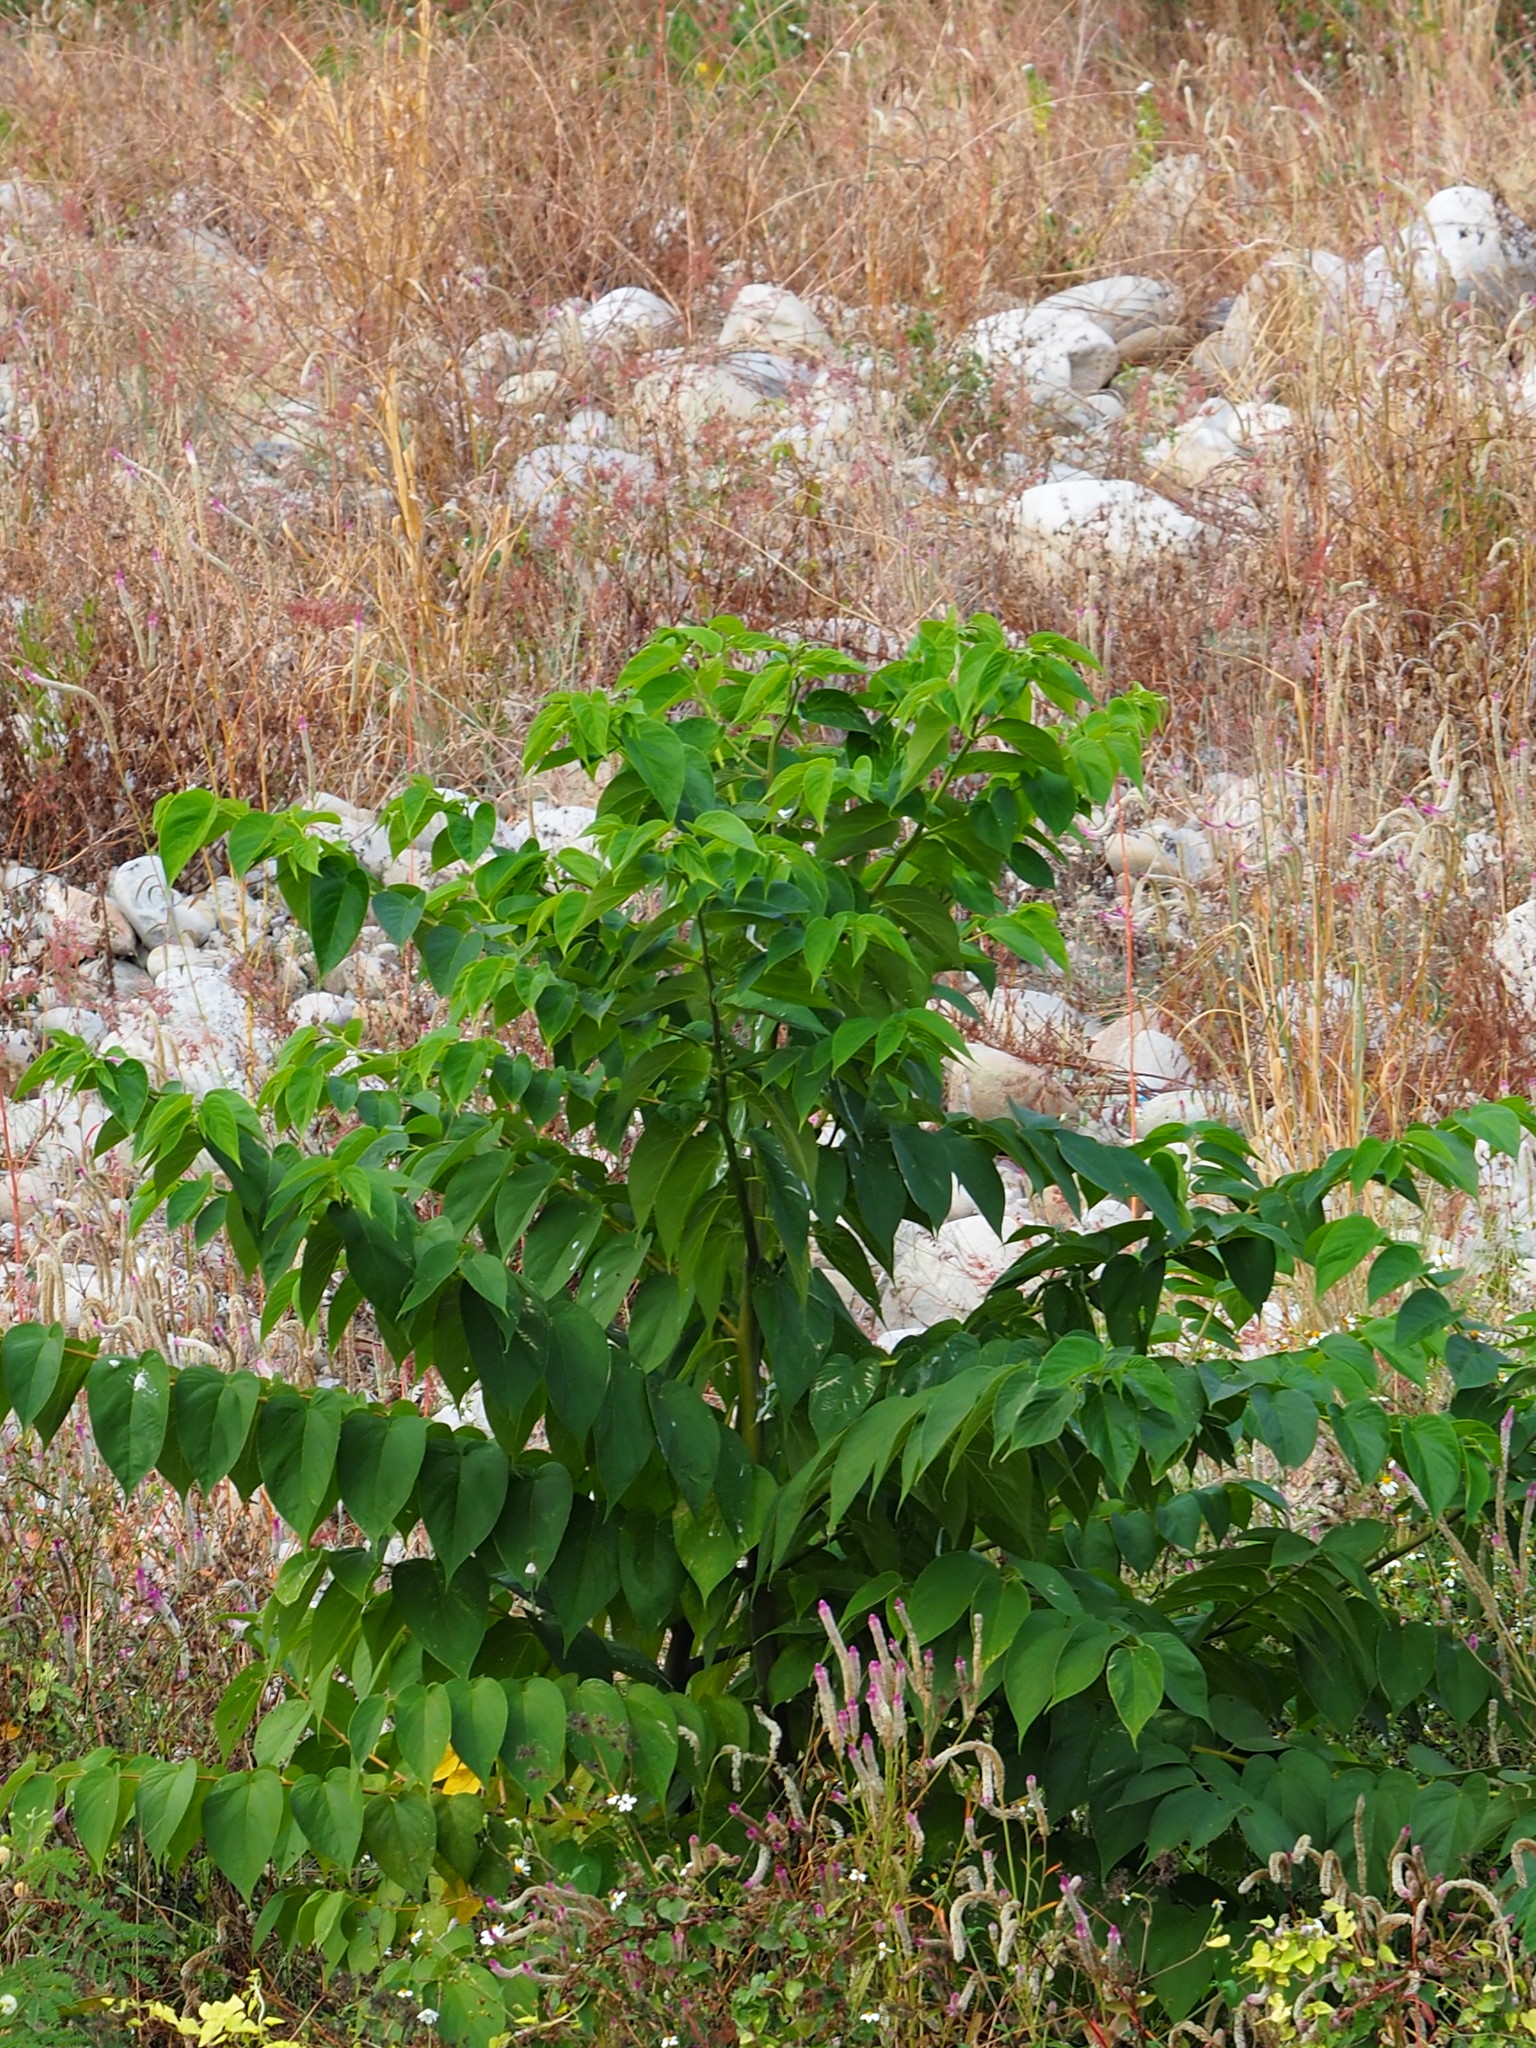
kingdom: Plantae
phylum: Tracheophyta
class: Magnoliopsida
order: Rosales
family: Cannabaceae
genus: Trema
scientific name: Trema orientale
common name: Indian charcoal tree
